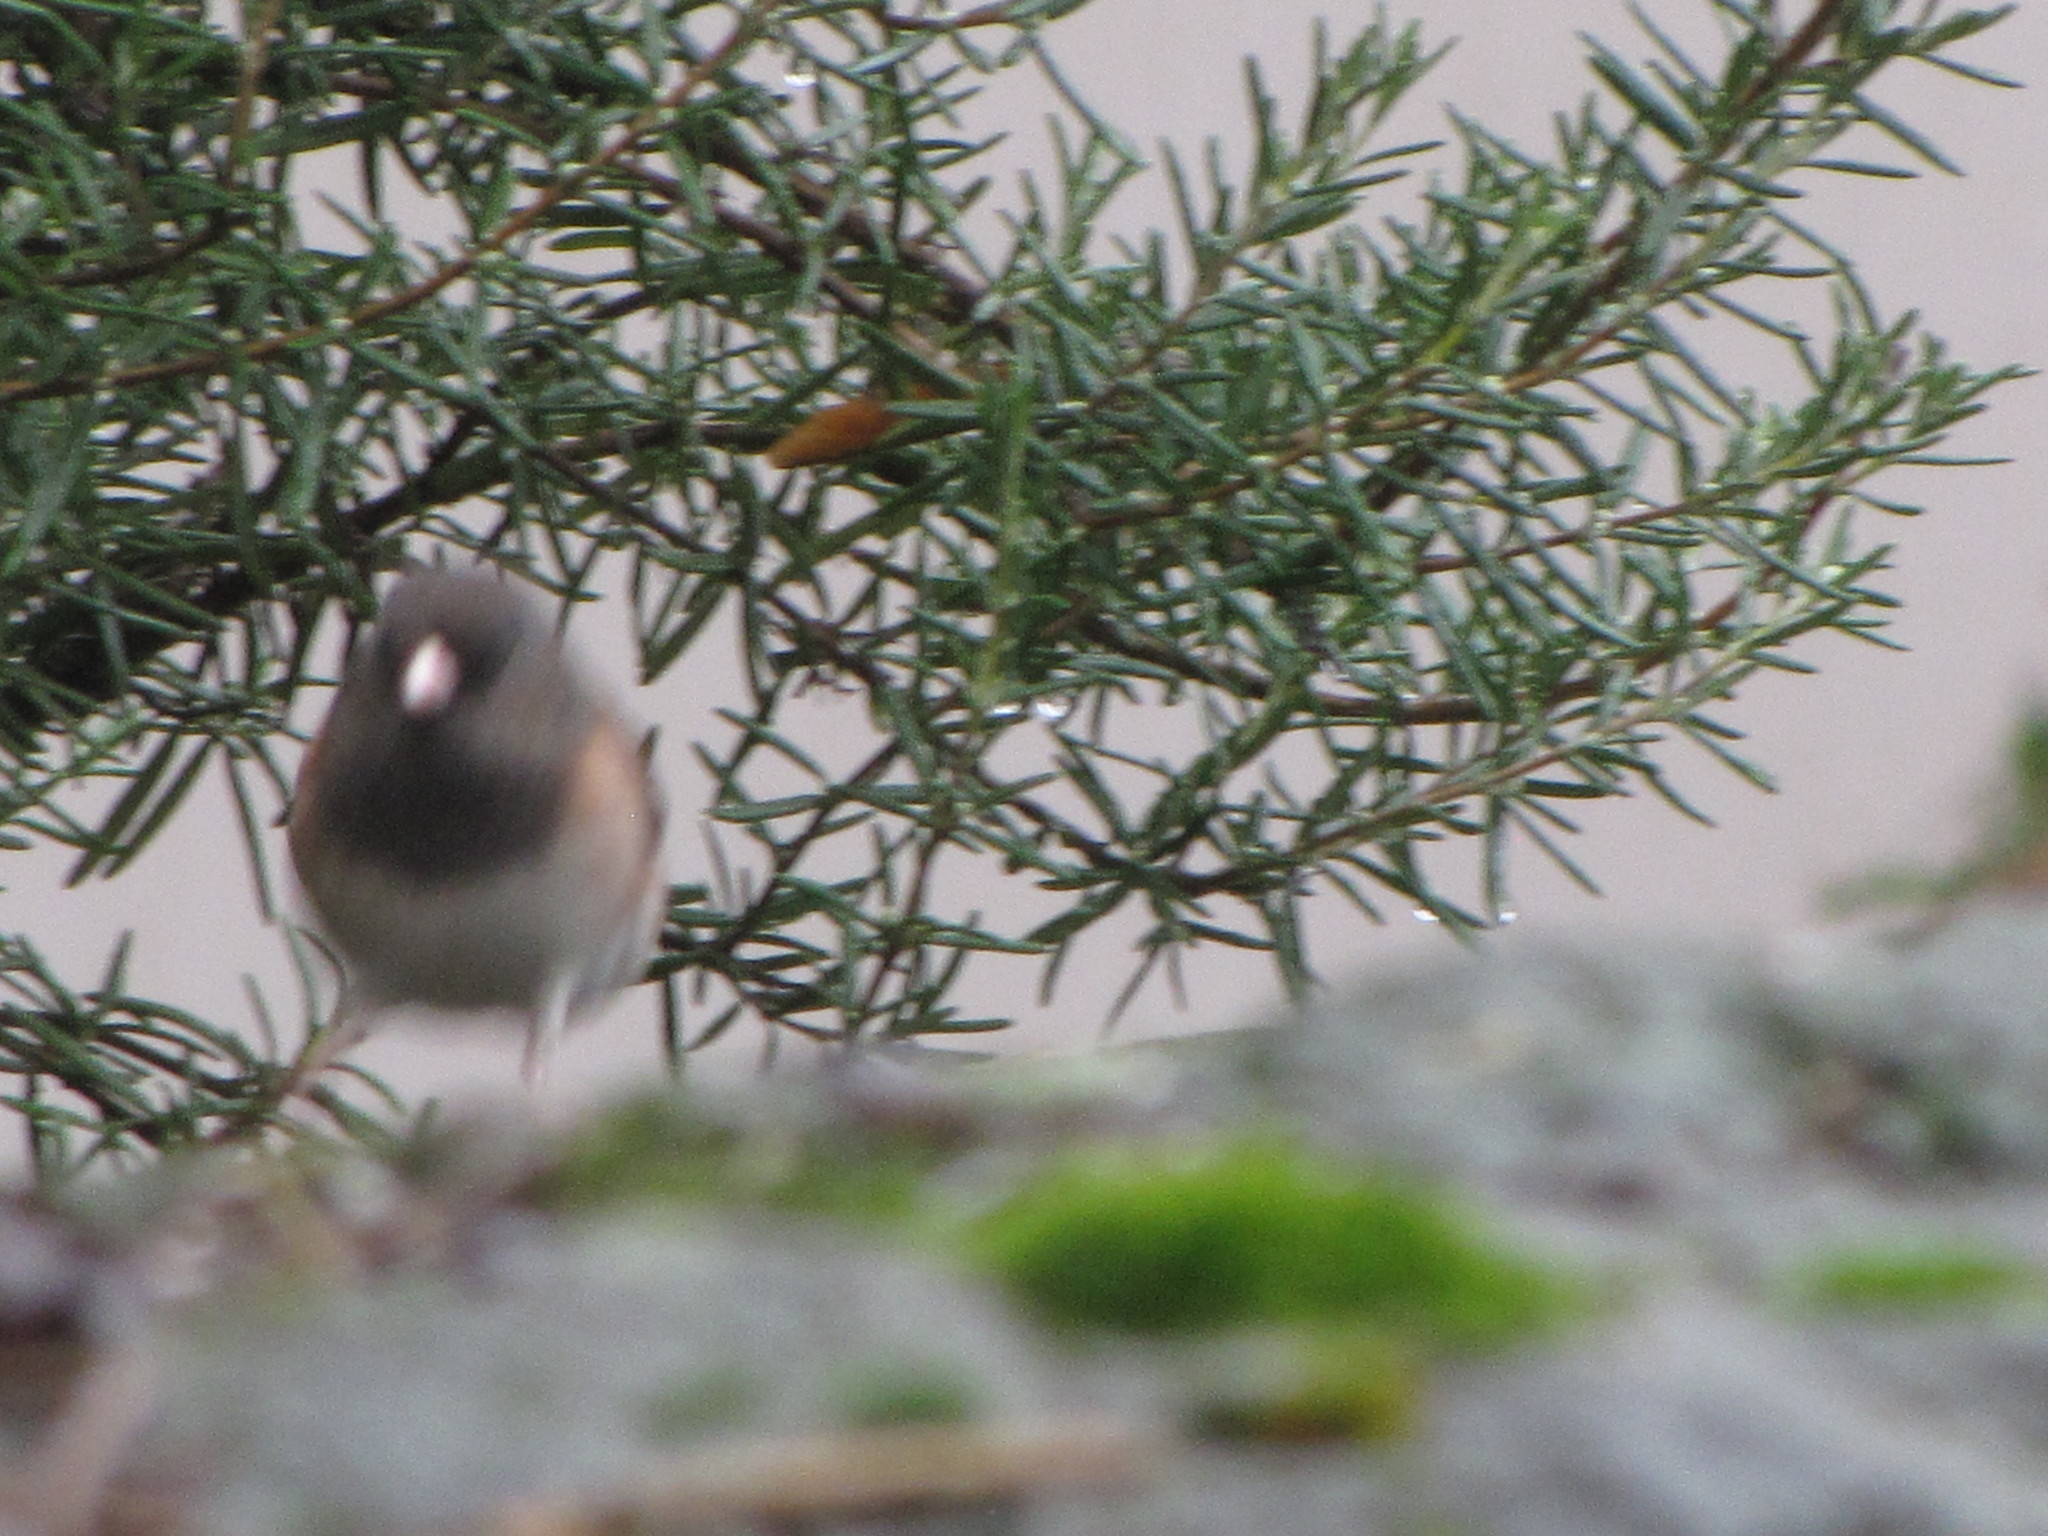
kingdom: Animalia
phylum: Chordata
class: Aves
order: Passeriformes
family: Passerellidae
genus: Junco
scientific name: Junco hyemalis
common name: Dark-eyed junco
